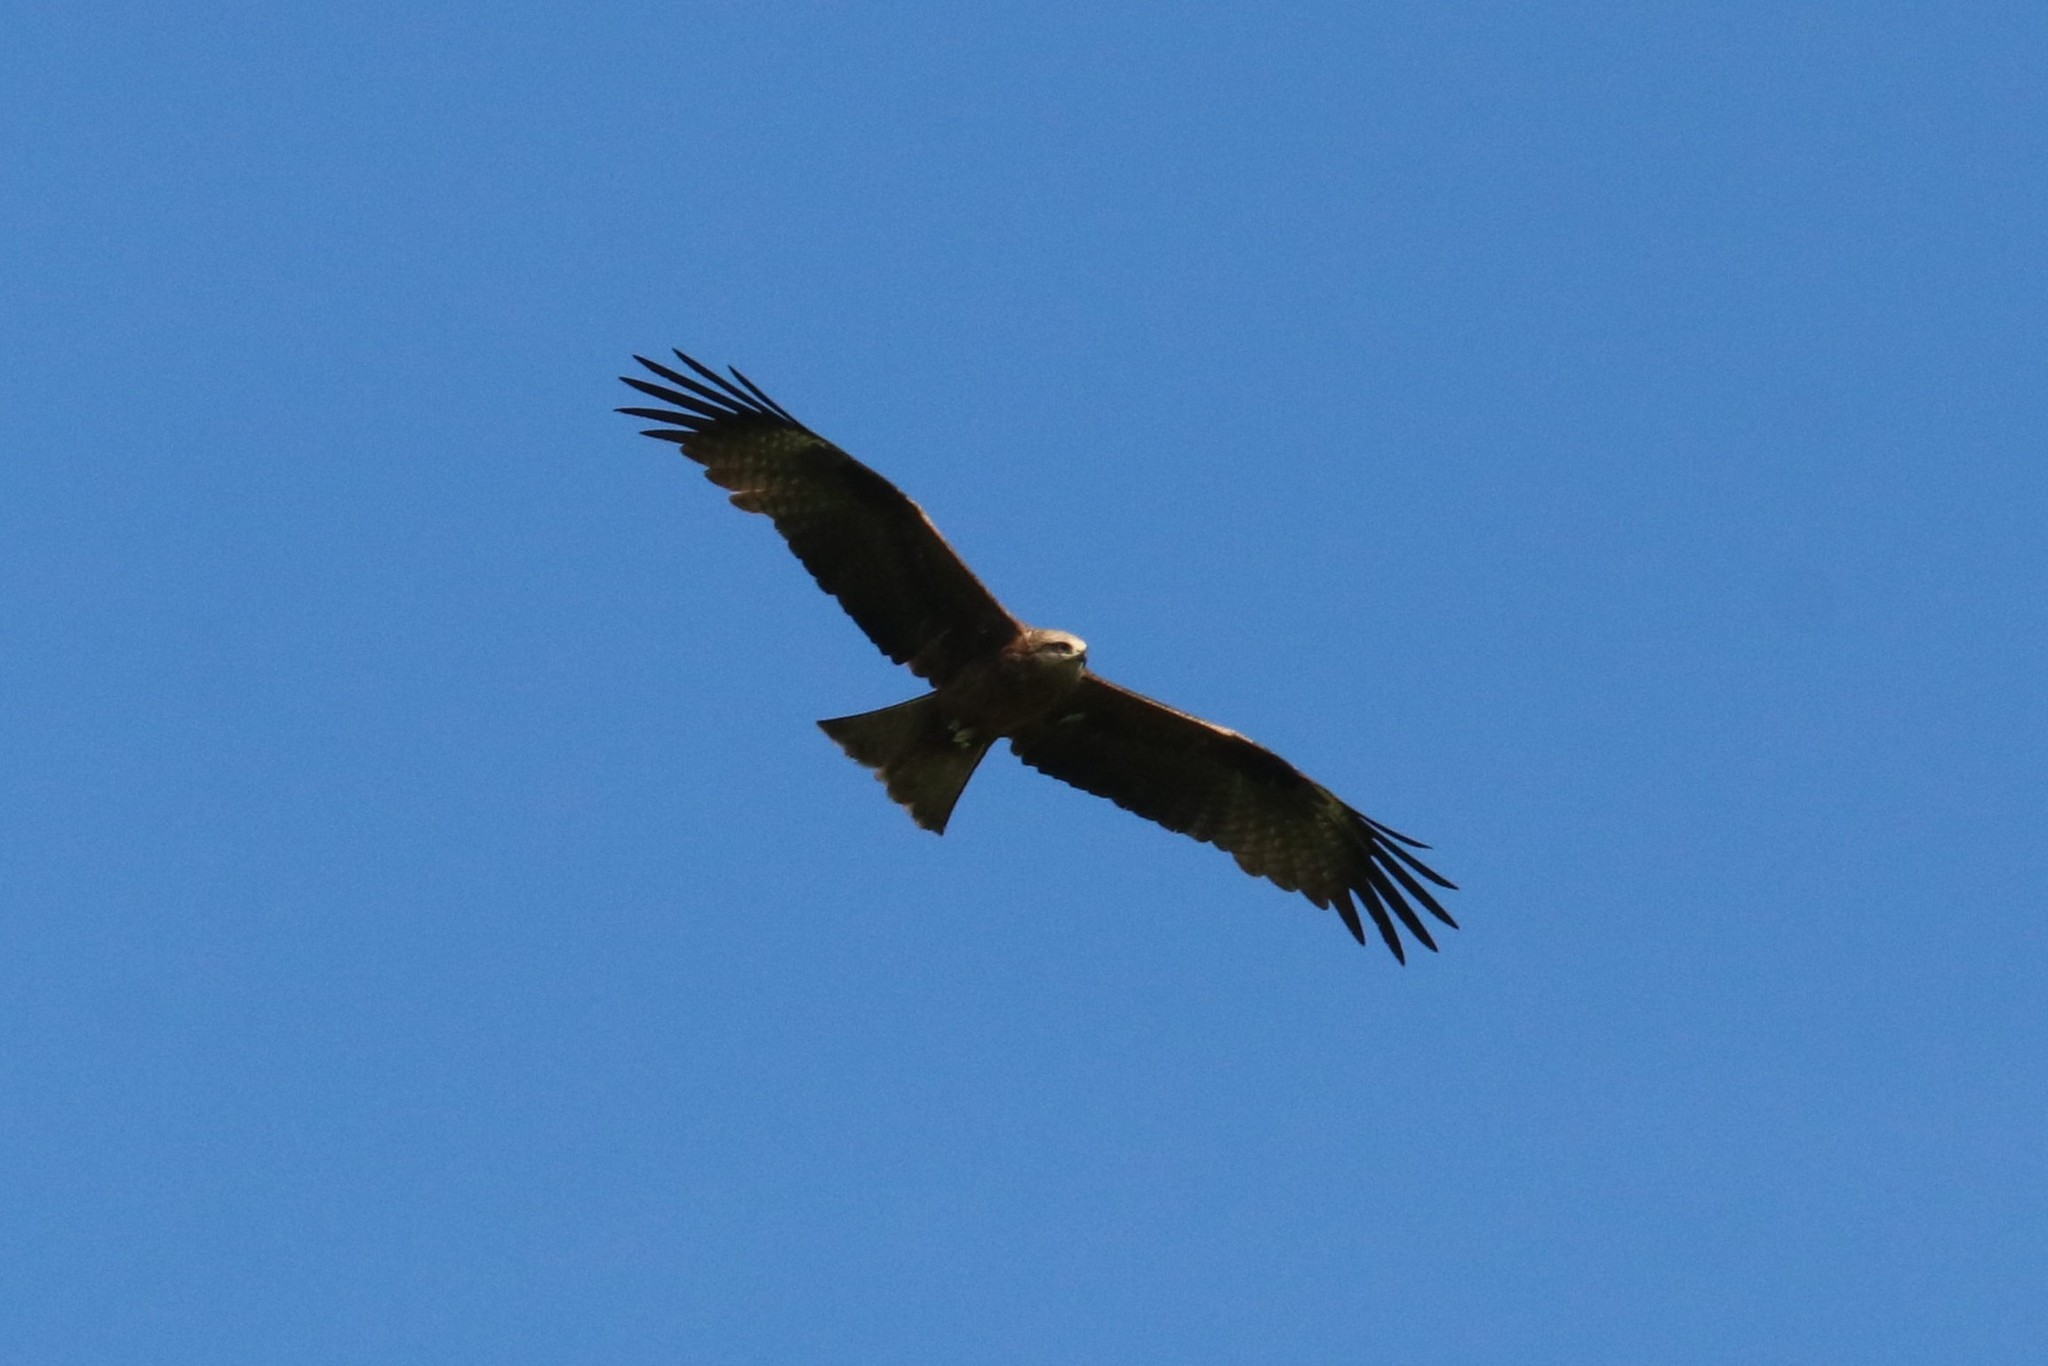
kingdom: Animalia
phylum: Chordata
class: Aves
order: Accipitriformes
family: Accipitridae
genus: Milvus
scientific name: Milvus migrans
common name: Black kite
